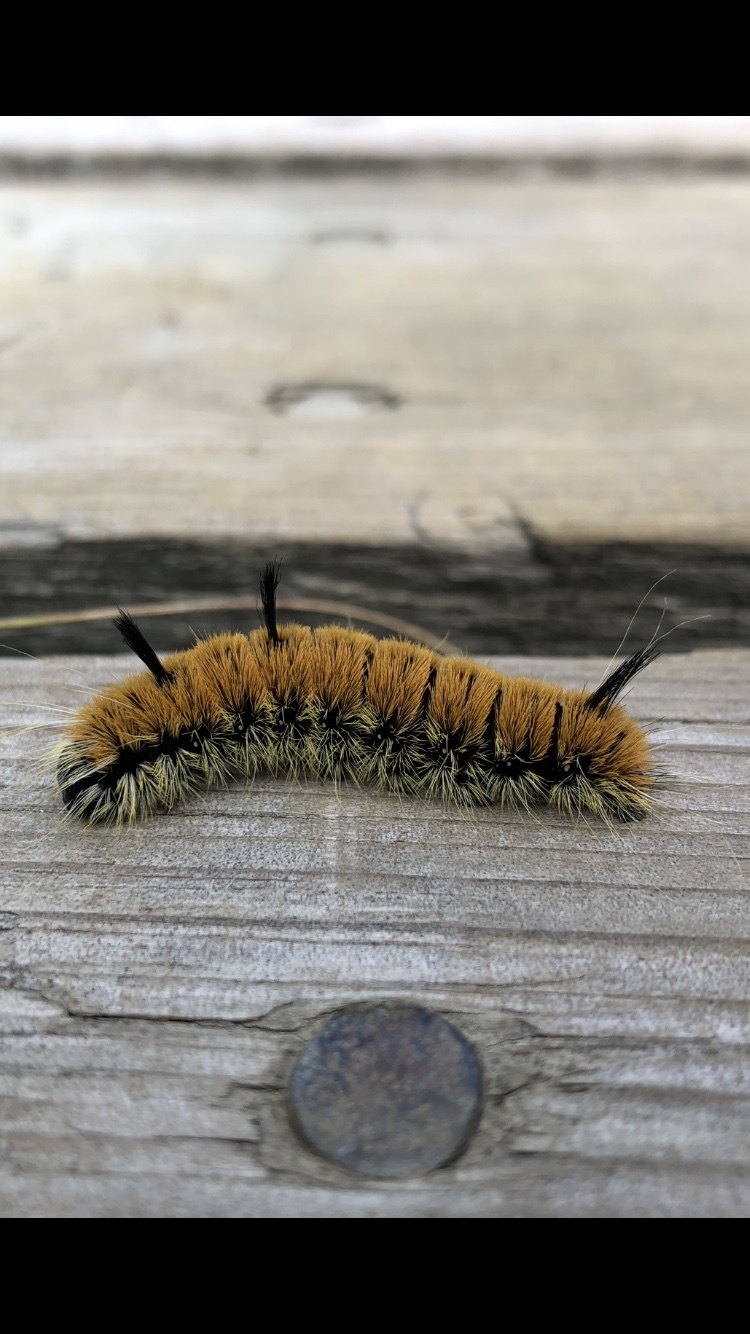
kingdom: Animalia
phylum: Arthropoda
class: Insecta
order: Lepidoptera
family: Noctuidae
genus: Acronicta
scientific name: Acronicta insita
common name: Large gray dagger
